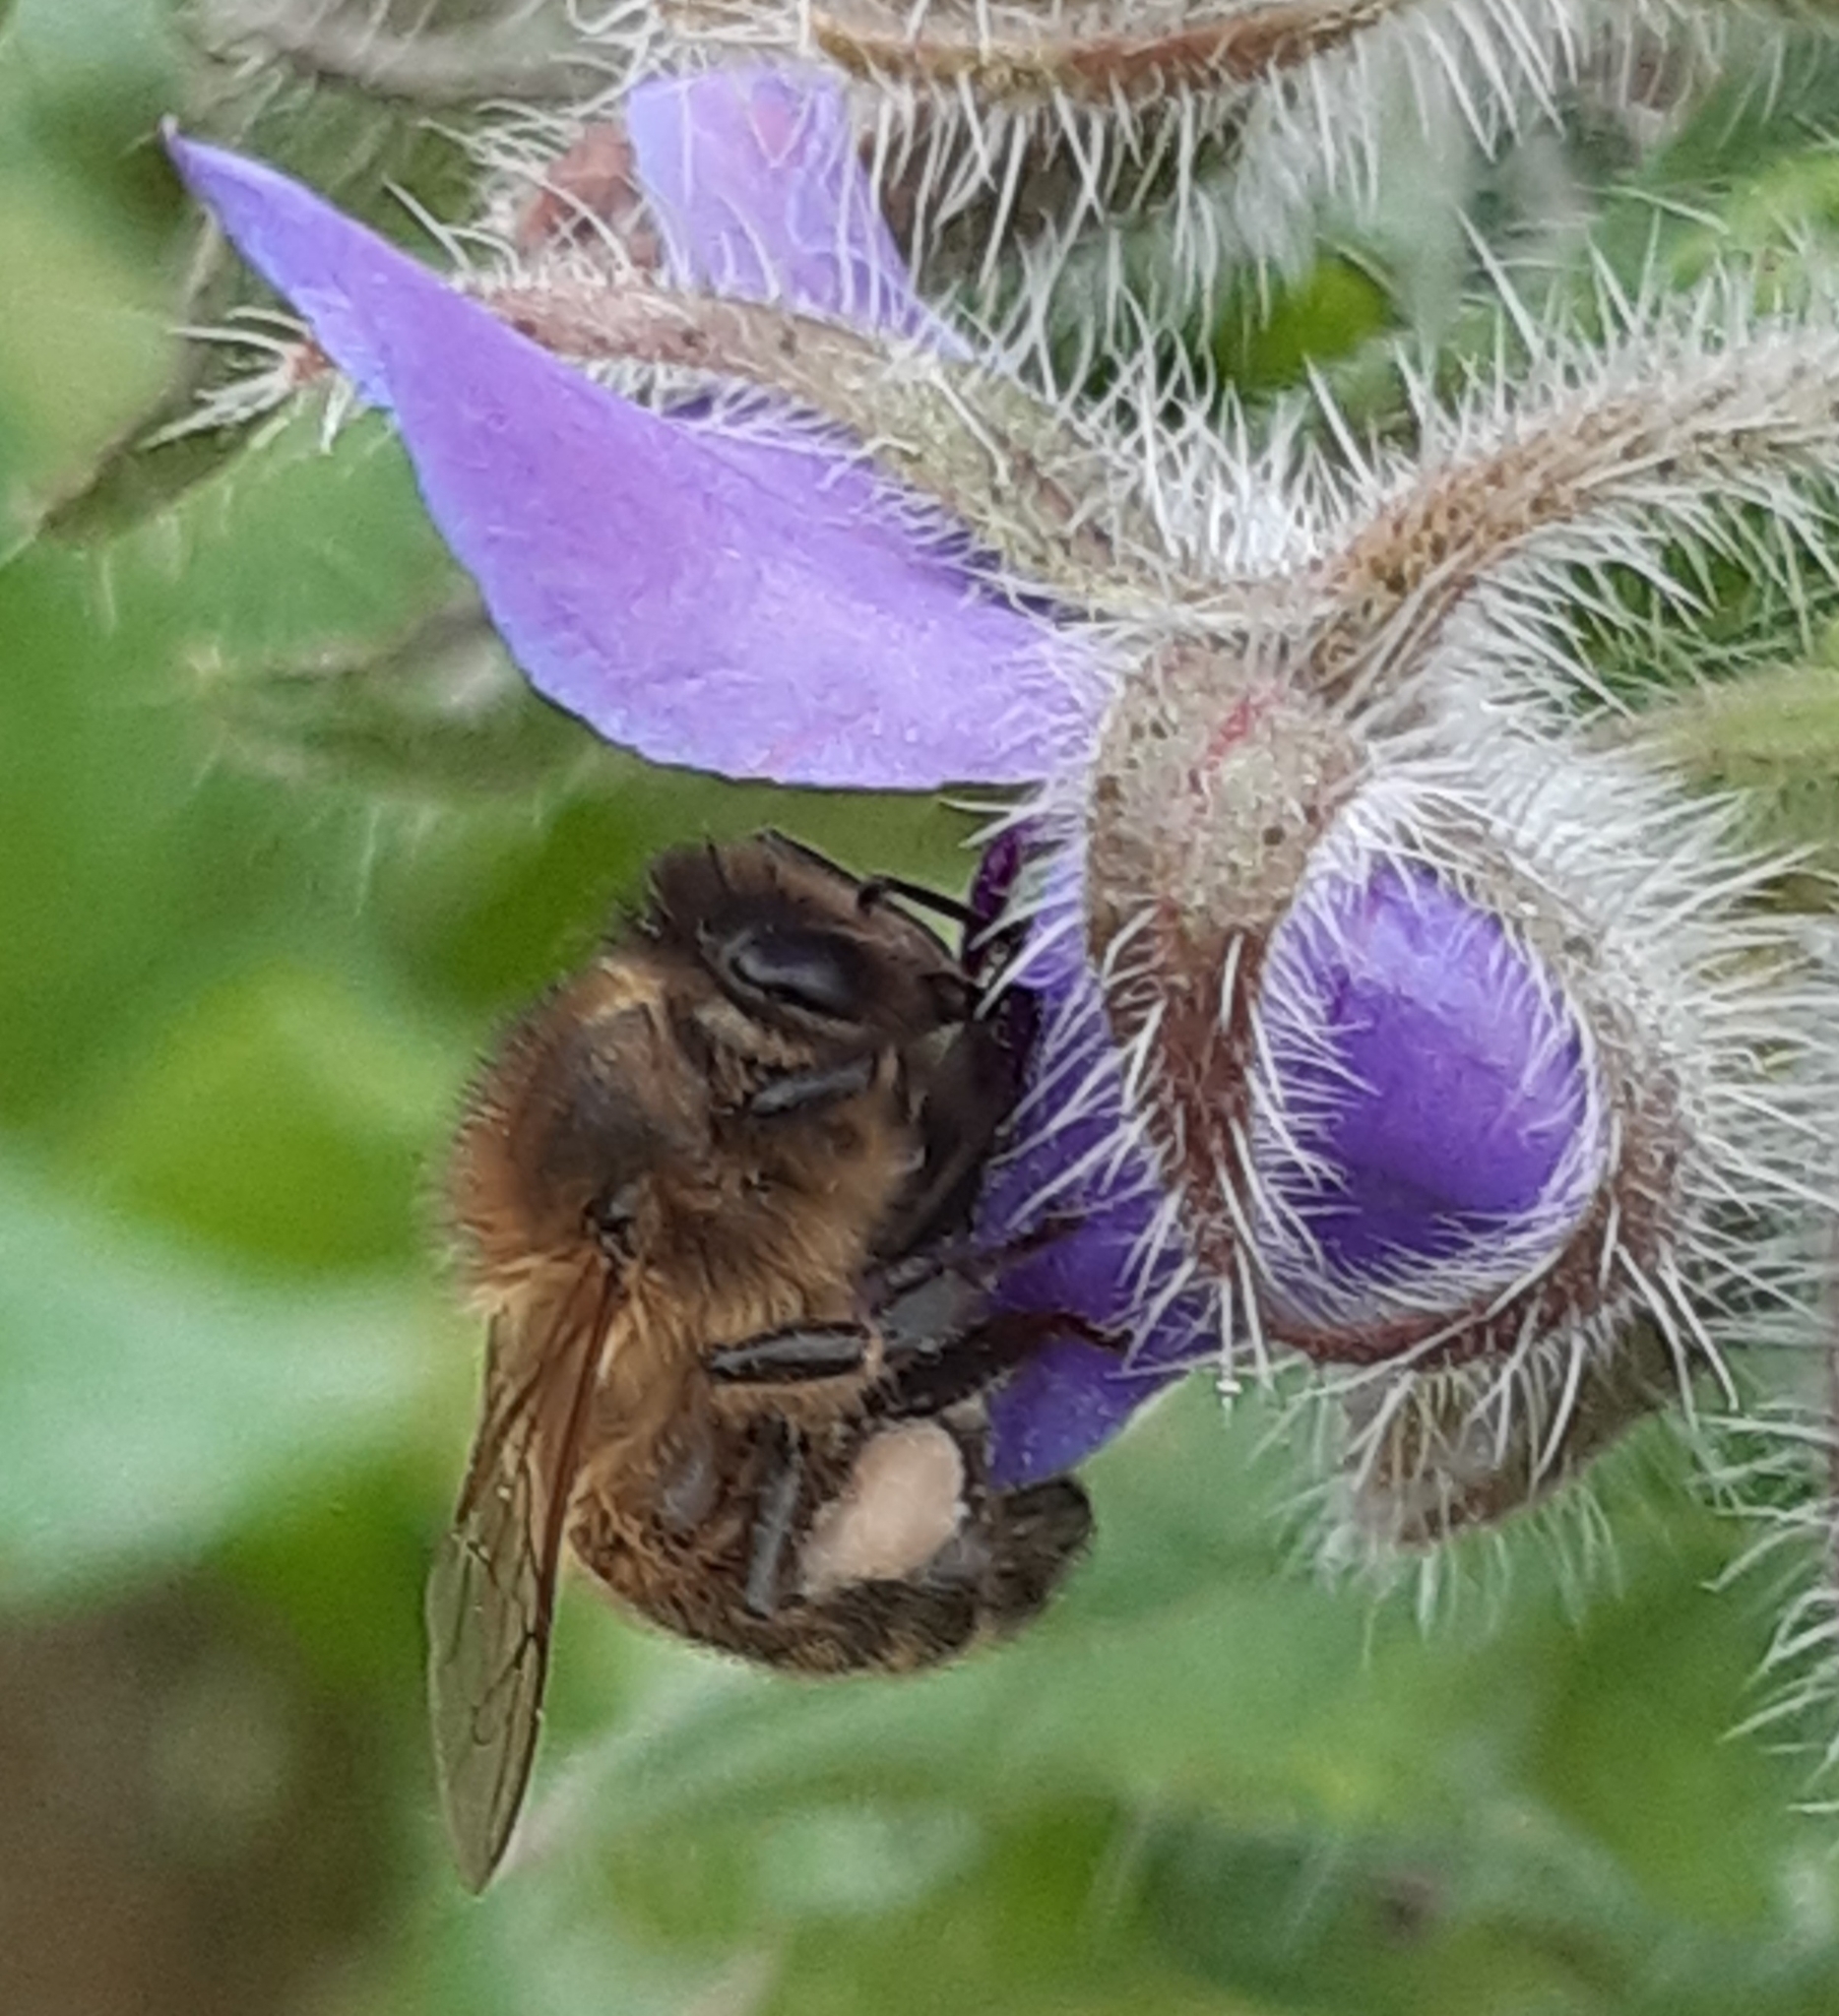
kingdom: Animalia
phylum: Arthropoda
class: Insecta
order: Hymenoptera
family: Apidae
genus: Apis
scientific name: Apis mellifera
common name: Honey bee
